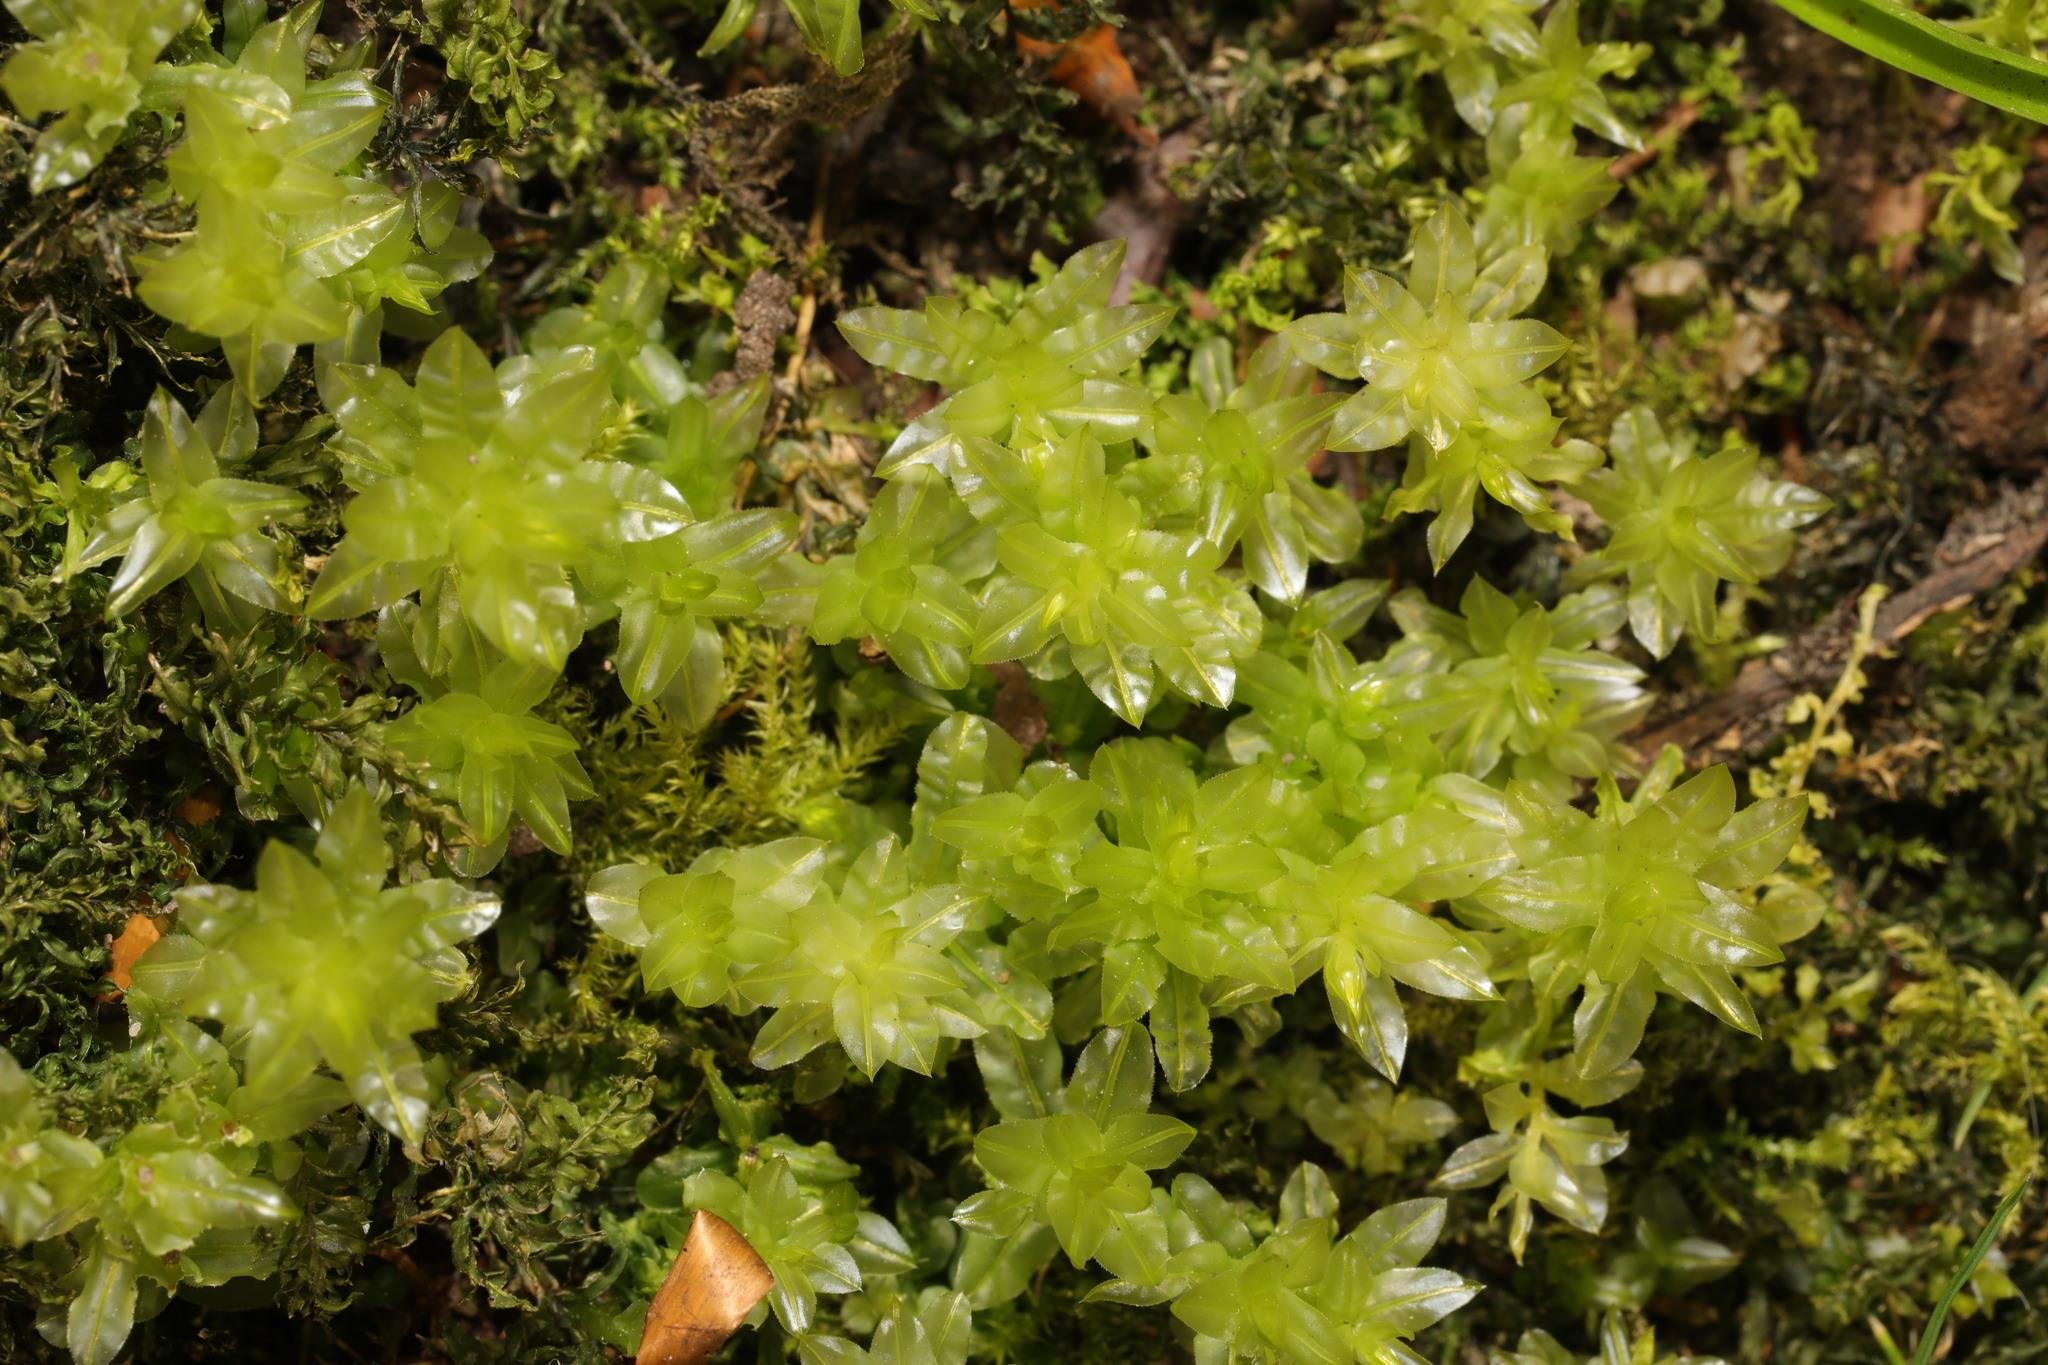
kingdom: Plantae
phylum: Bryophyta
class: Bryopsida
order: Bryales
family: Mniaceae
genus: Plagiomnium
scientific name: Plagiomnium undulatum
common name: Hart's-tongue thyme-moss
